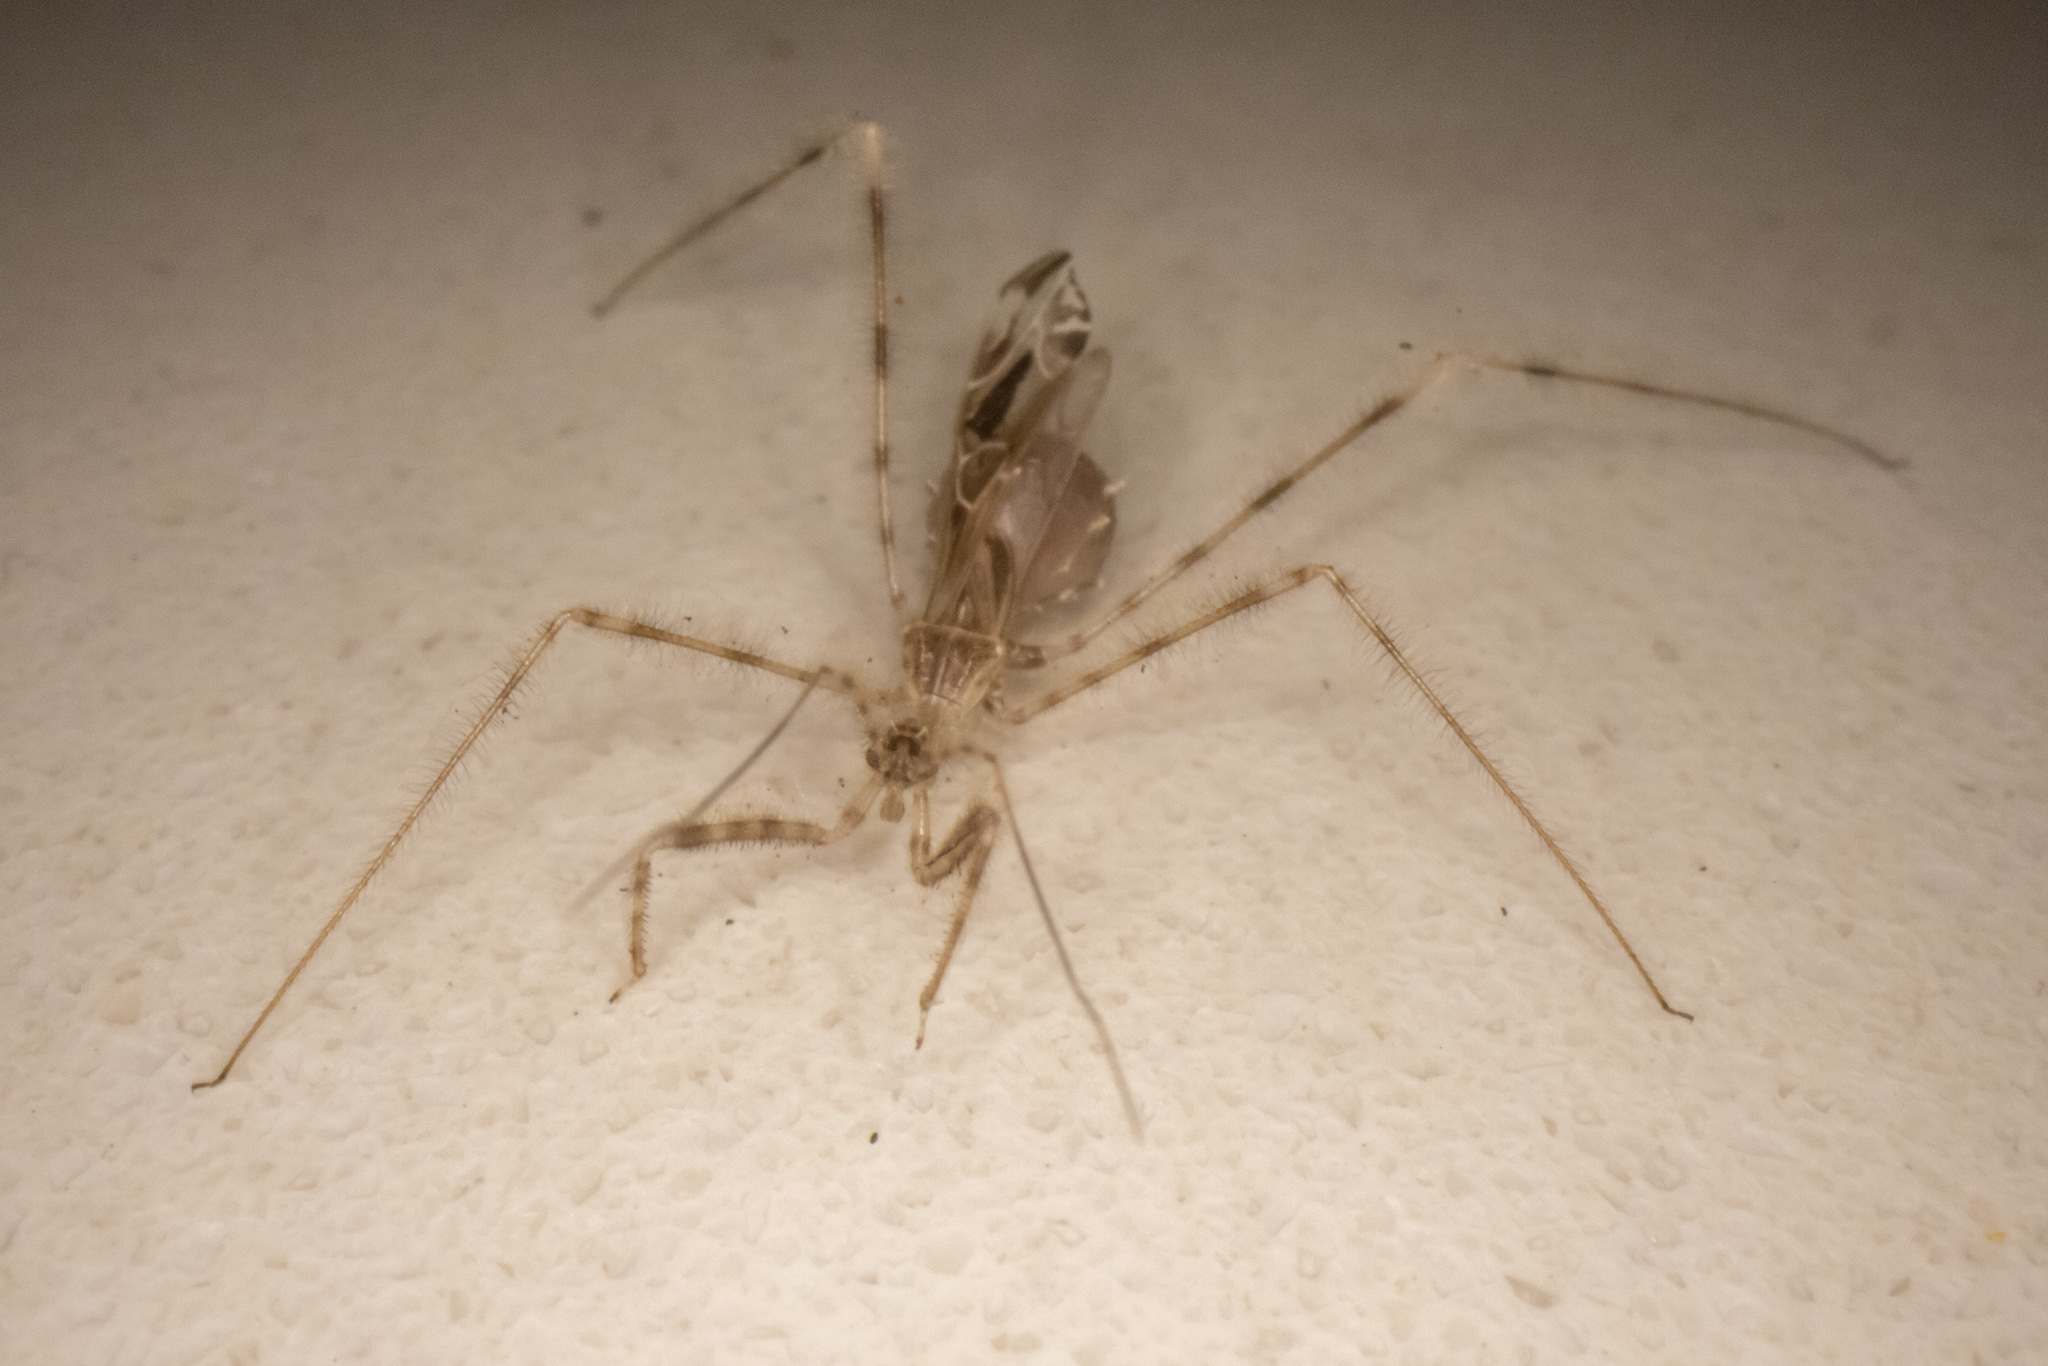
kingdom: Animalia
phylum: Arthropoda
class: Insecta
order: Hemiptera
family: Reduviidae
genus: Stenolemus
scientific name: Stenolemus fraterculus
